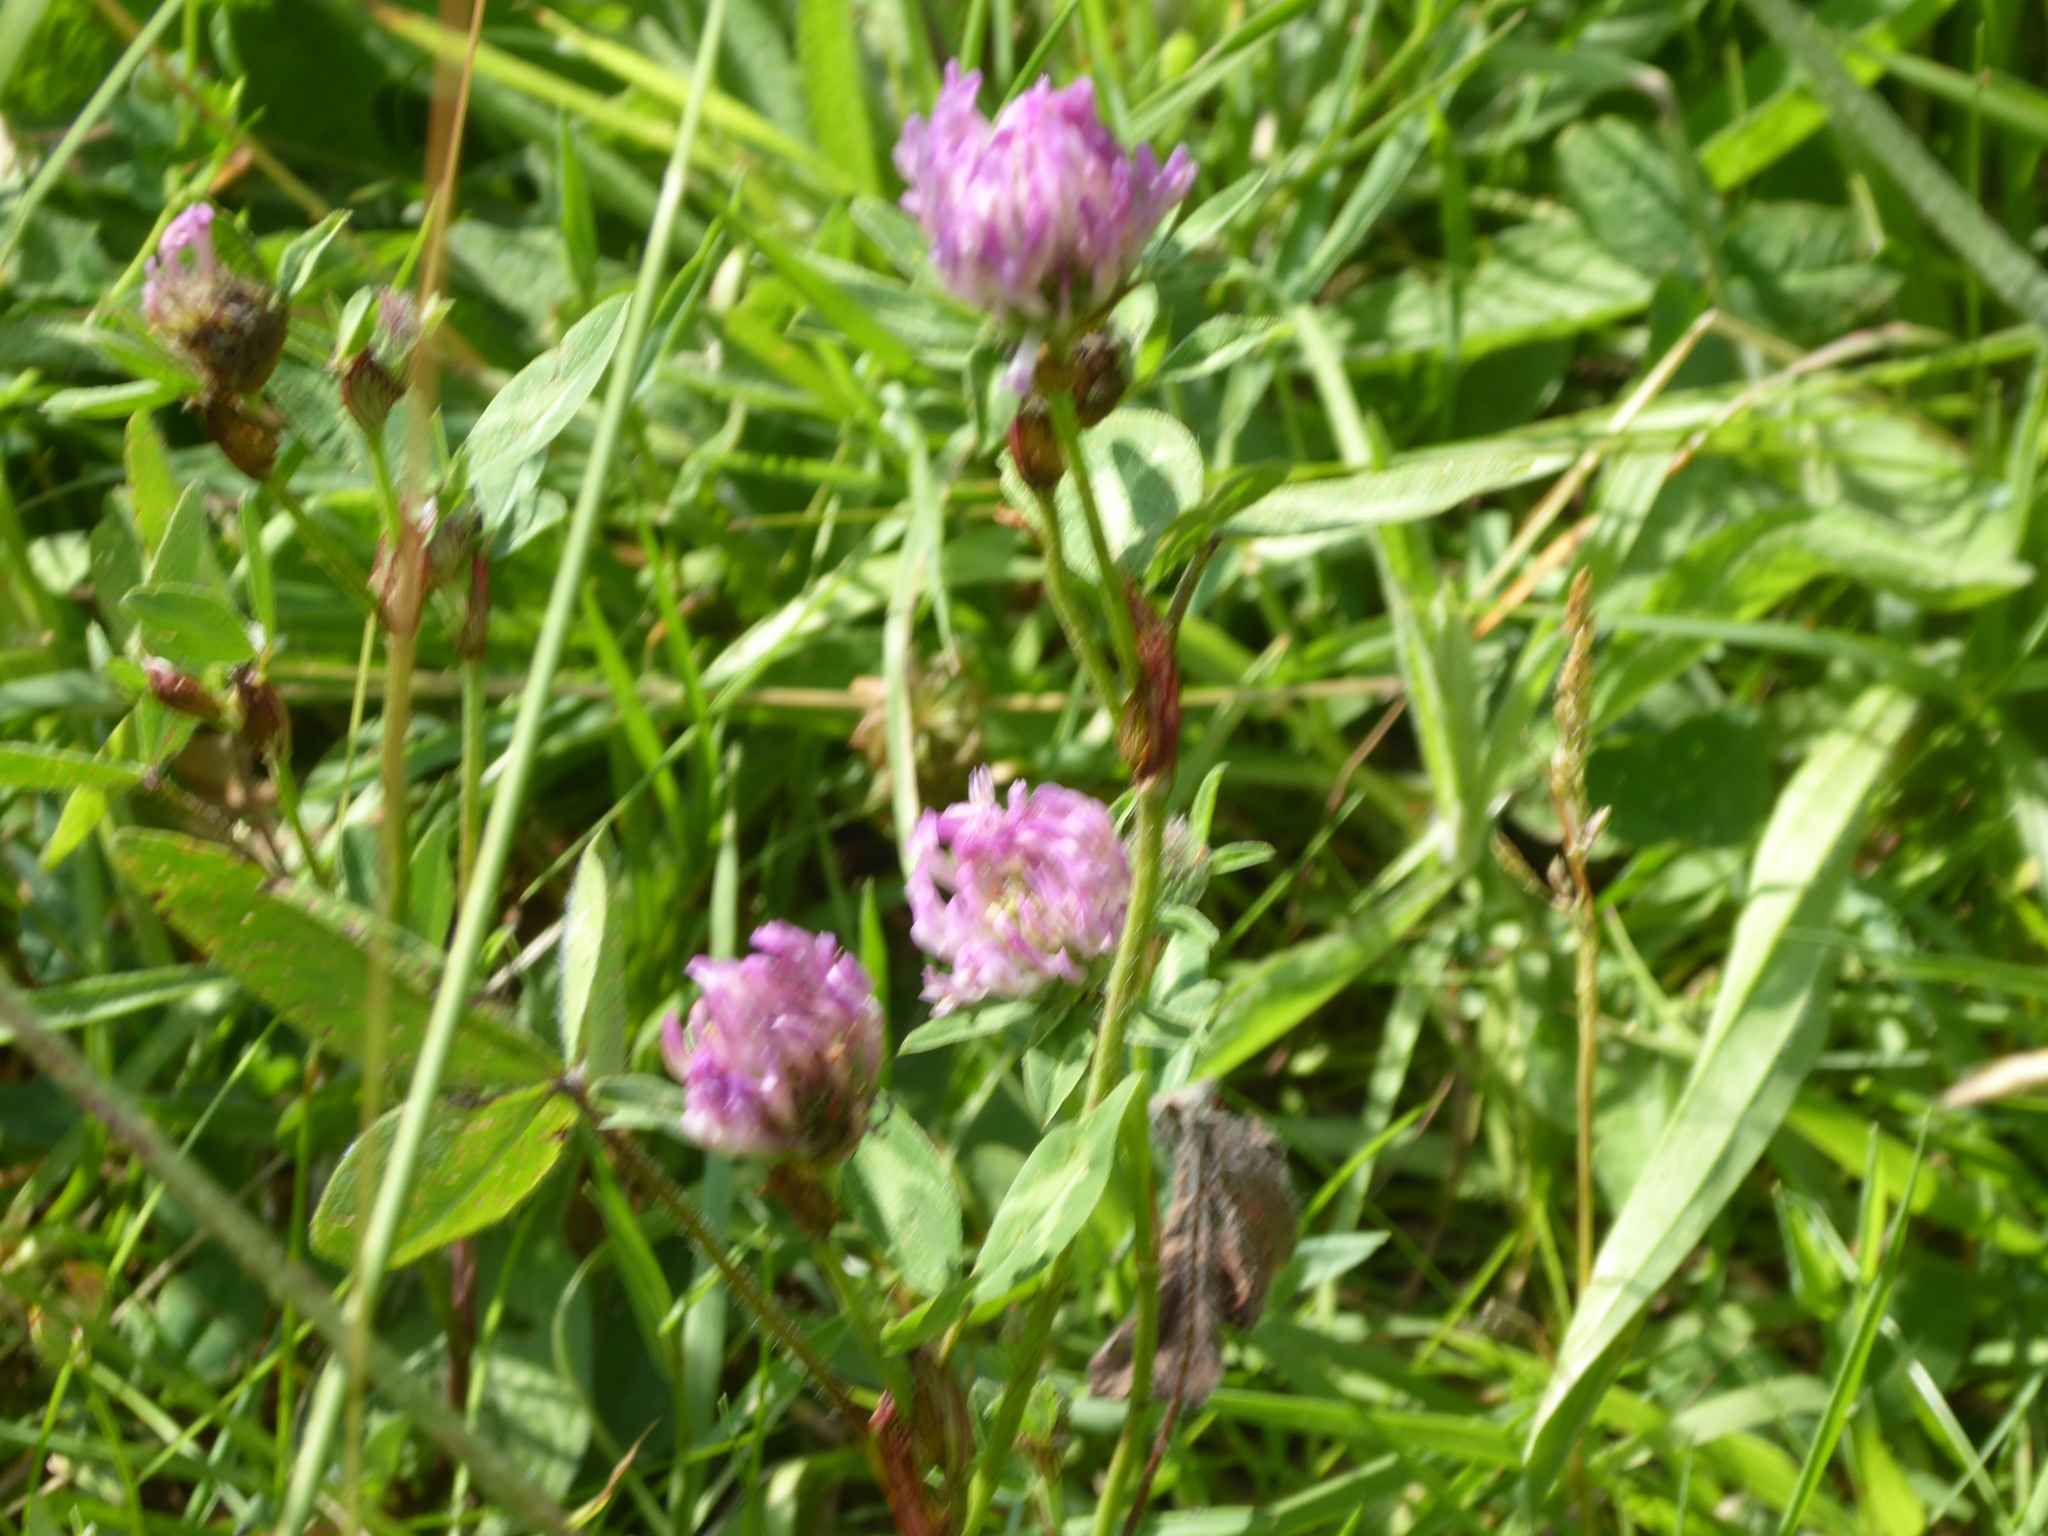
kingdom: Plantae
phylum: Tracheophyta
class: Magnoliopsida
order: Fabales
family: Fabaceae
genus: Trifolium
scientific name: Trifolium pratense
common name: Red clover
